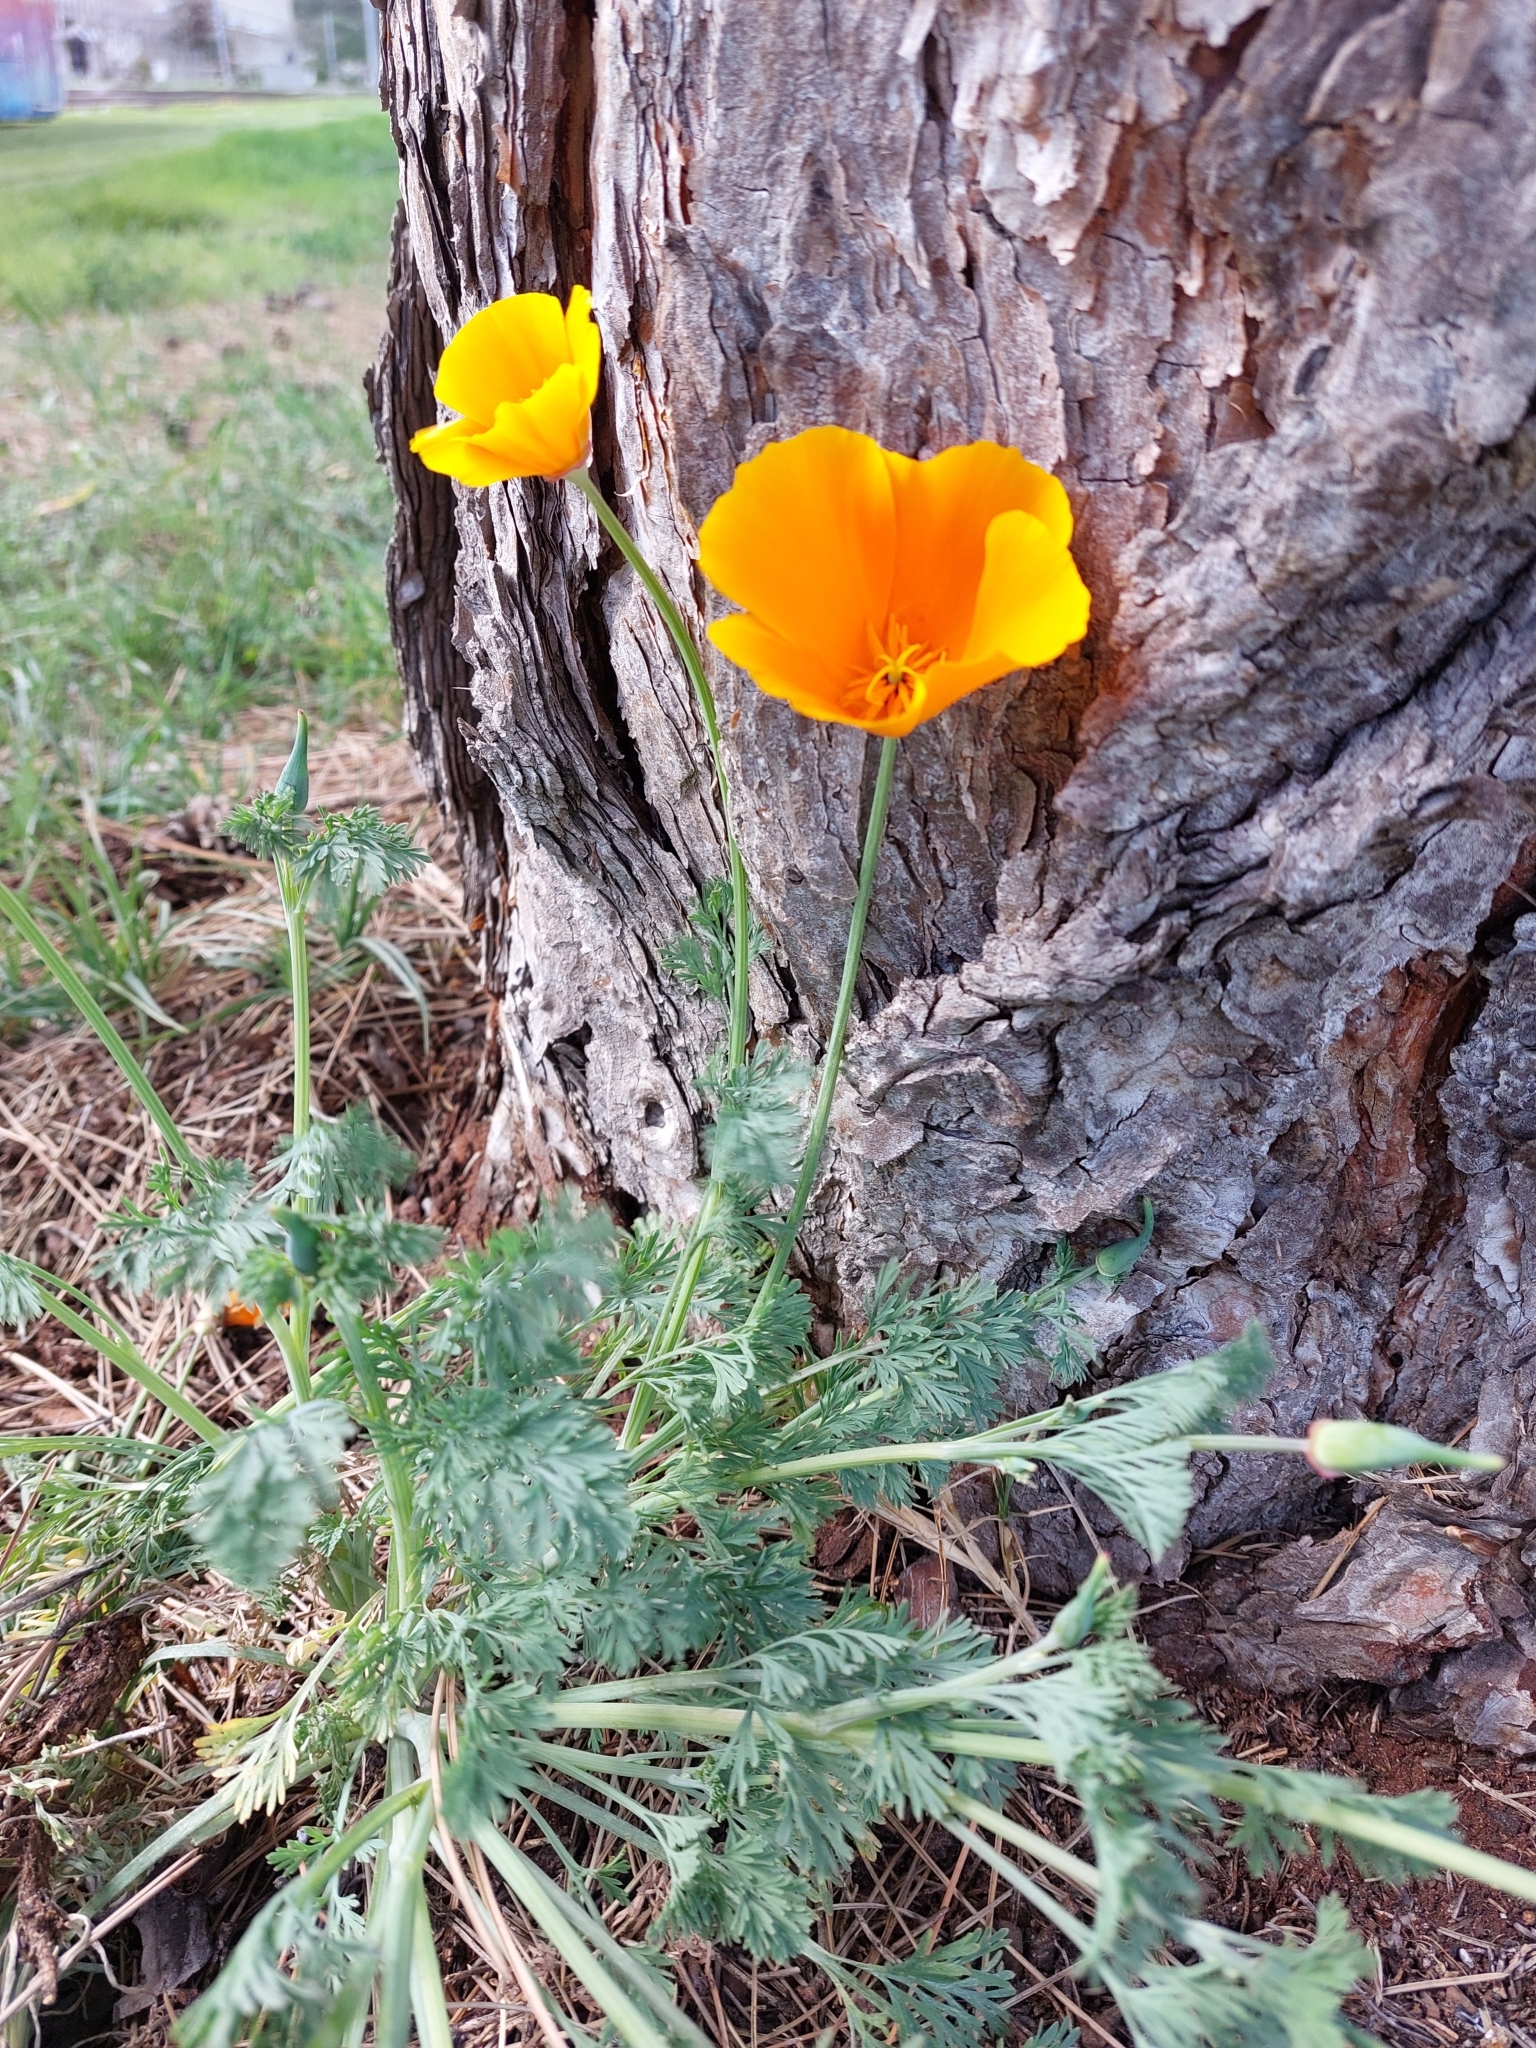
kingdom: Plantae
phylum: Tracheophyta
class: Magnoliopsida
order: Ranunculales
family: Papaveraceae
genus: Eschscholzia
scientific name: Eschscholzia californica
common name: California poppy
